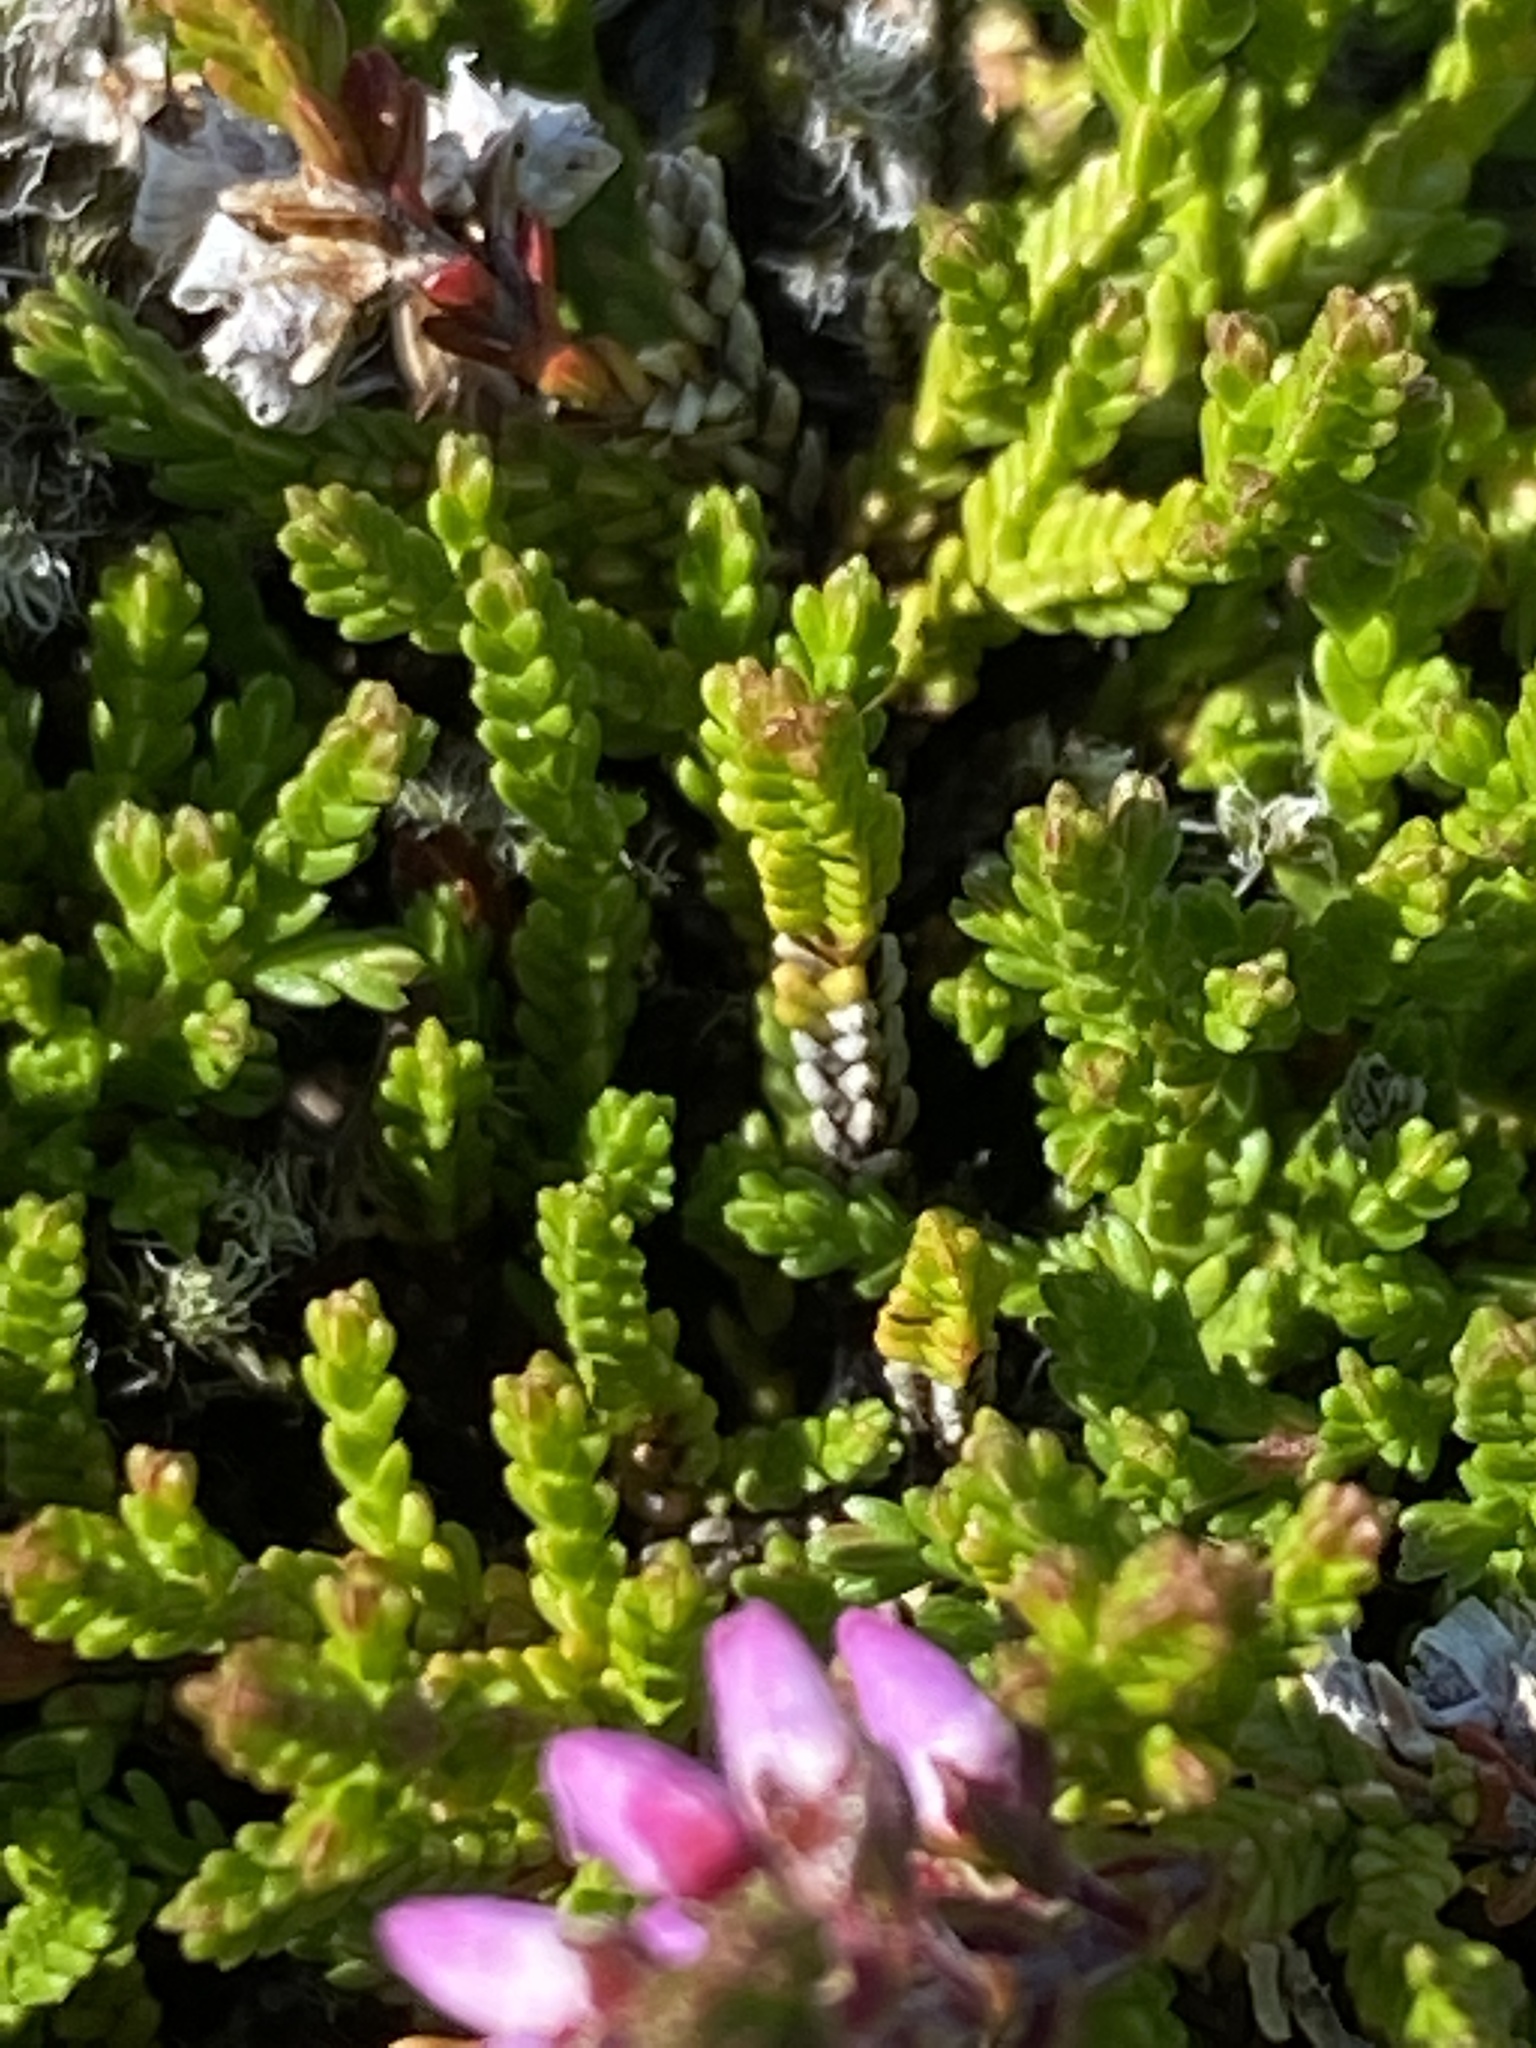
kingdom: Plantae
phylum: Tracheophyta
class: Magnoliopsida
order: Ericales
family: Ericaceae
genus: Calluna
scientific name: Calluna vulgaris
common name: Heather
